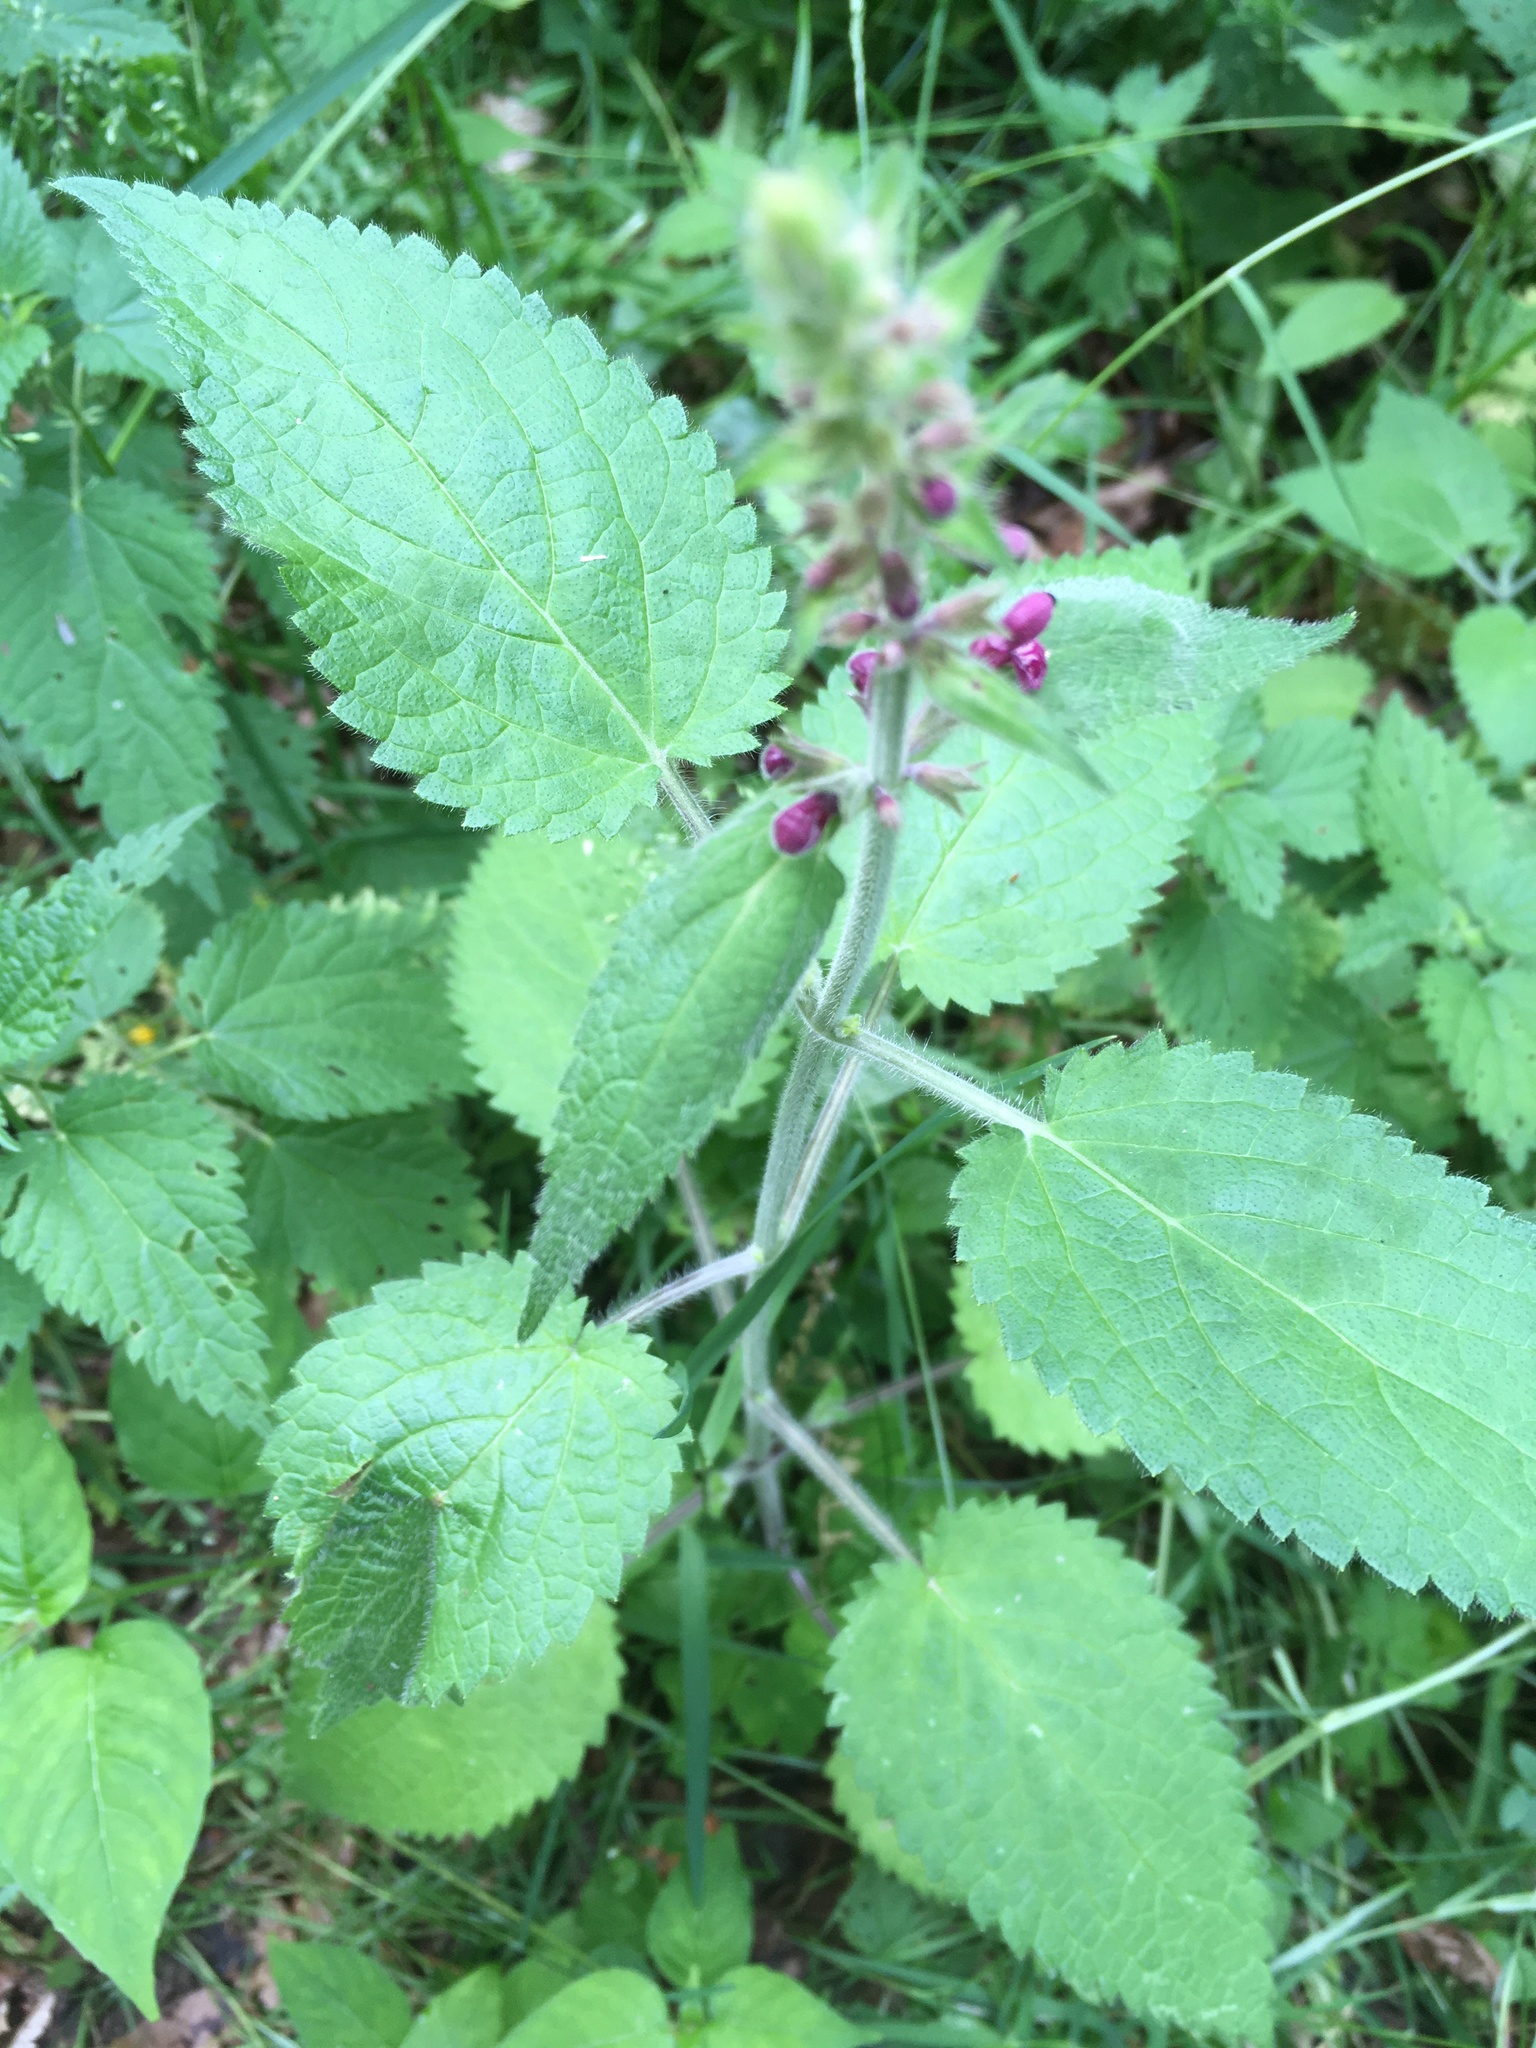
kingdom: Plantae
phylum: Tracheophyta
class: Magnoliopsida
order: Lamiales
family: Lamiaceae
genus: Stachys
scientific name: Stachys sylvatica
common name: Hedge woundwort
